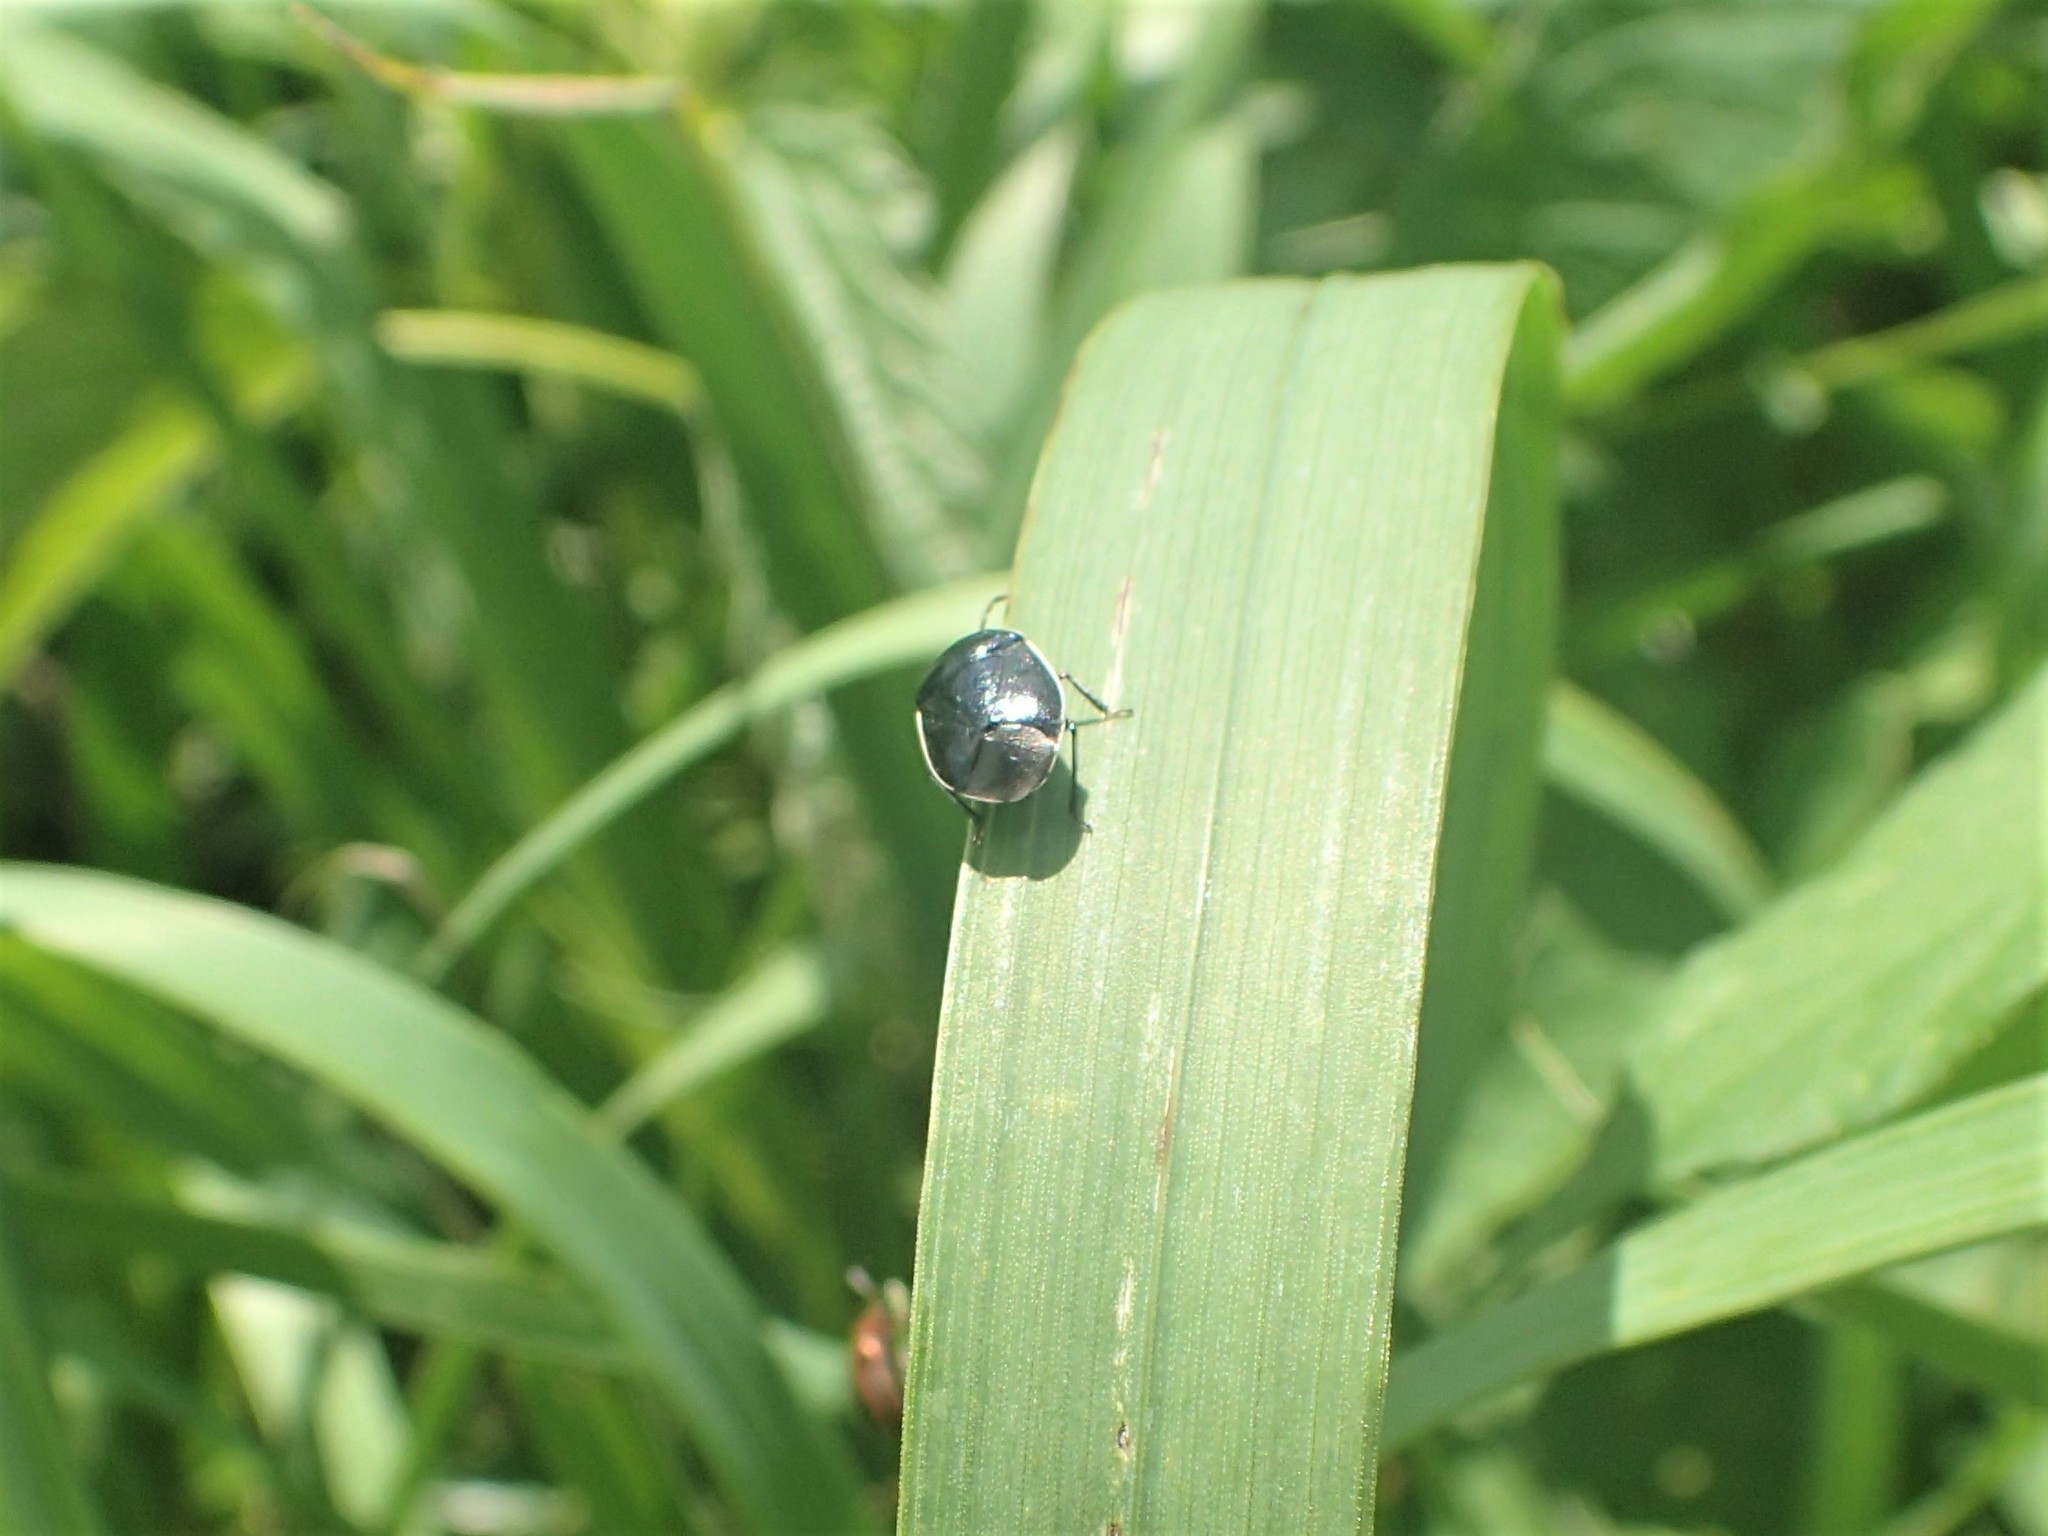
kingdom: Animalia
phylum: Arthropoda
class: Insecta
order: Hemiptera
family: Cydnidae
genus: Sehirus
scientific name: Sehirus cinctus
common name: White-margined burrower bug
